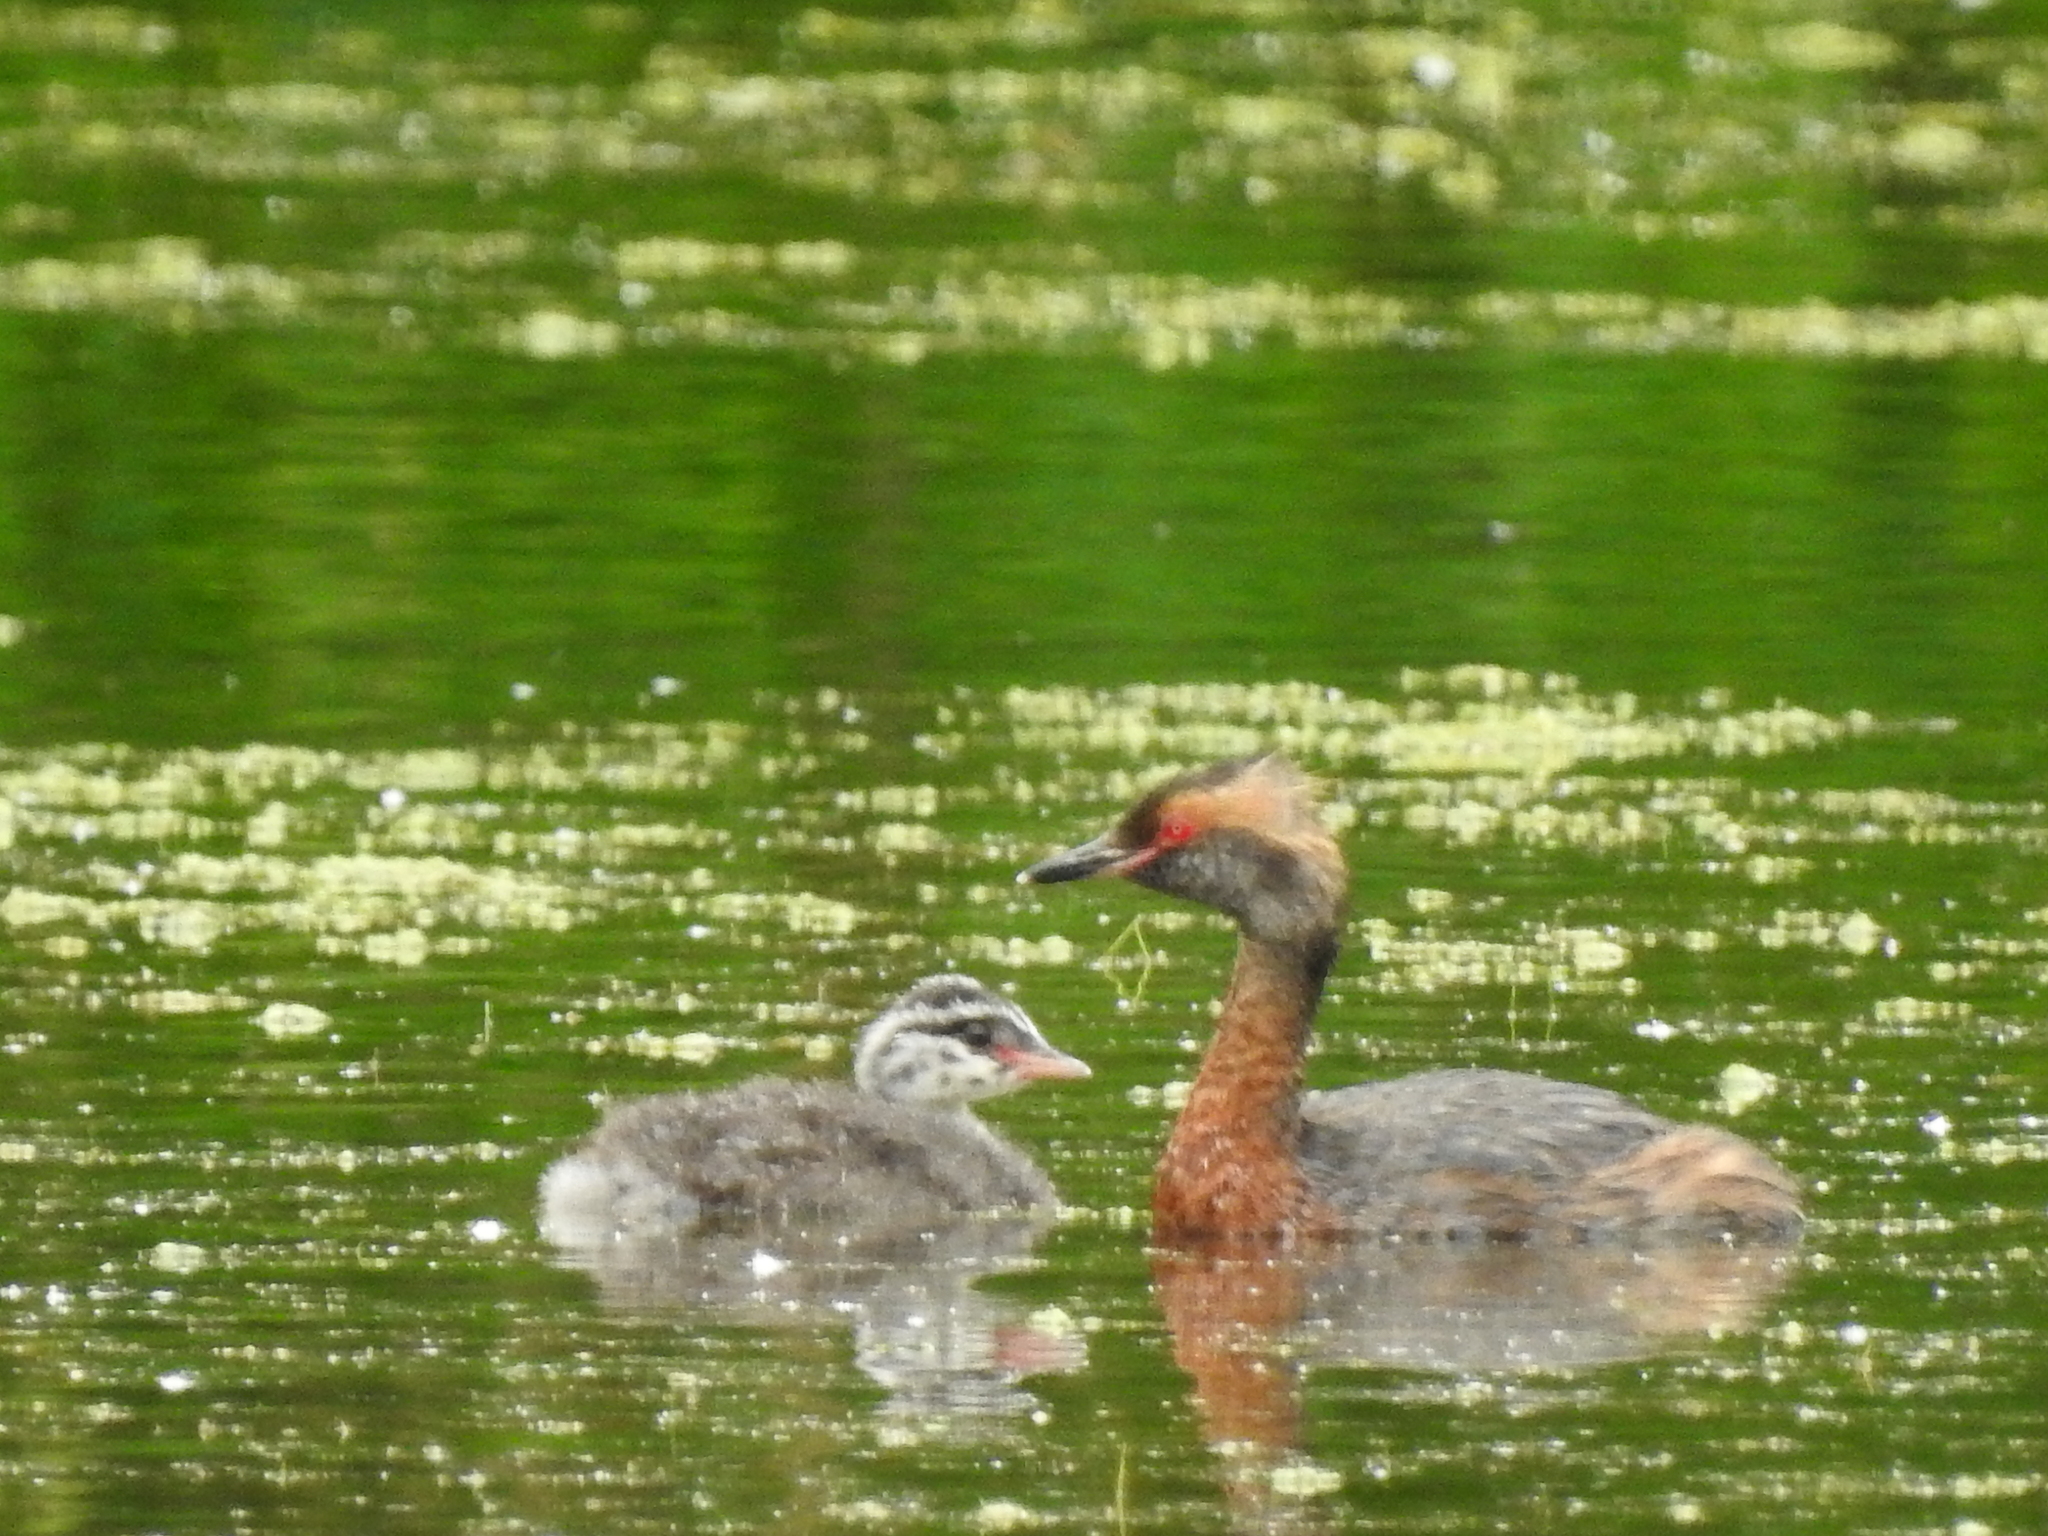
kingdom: Animalia
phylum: Chordata
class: Aves
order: Podicipediformes
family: Podicipedidae
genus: Podiceps
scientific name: Podiceps auritus
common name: Horned grebe
